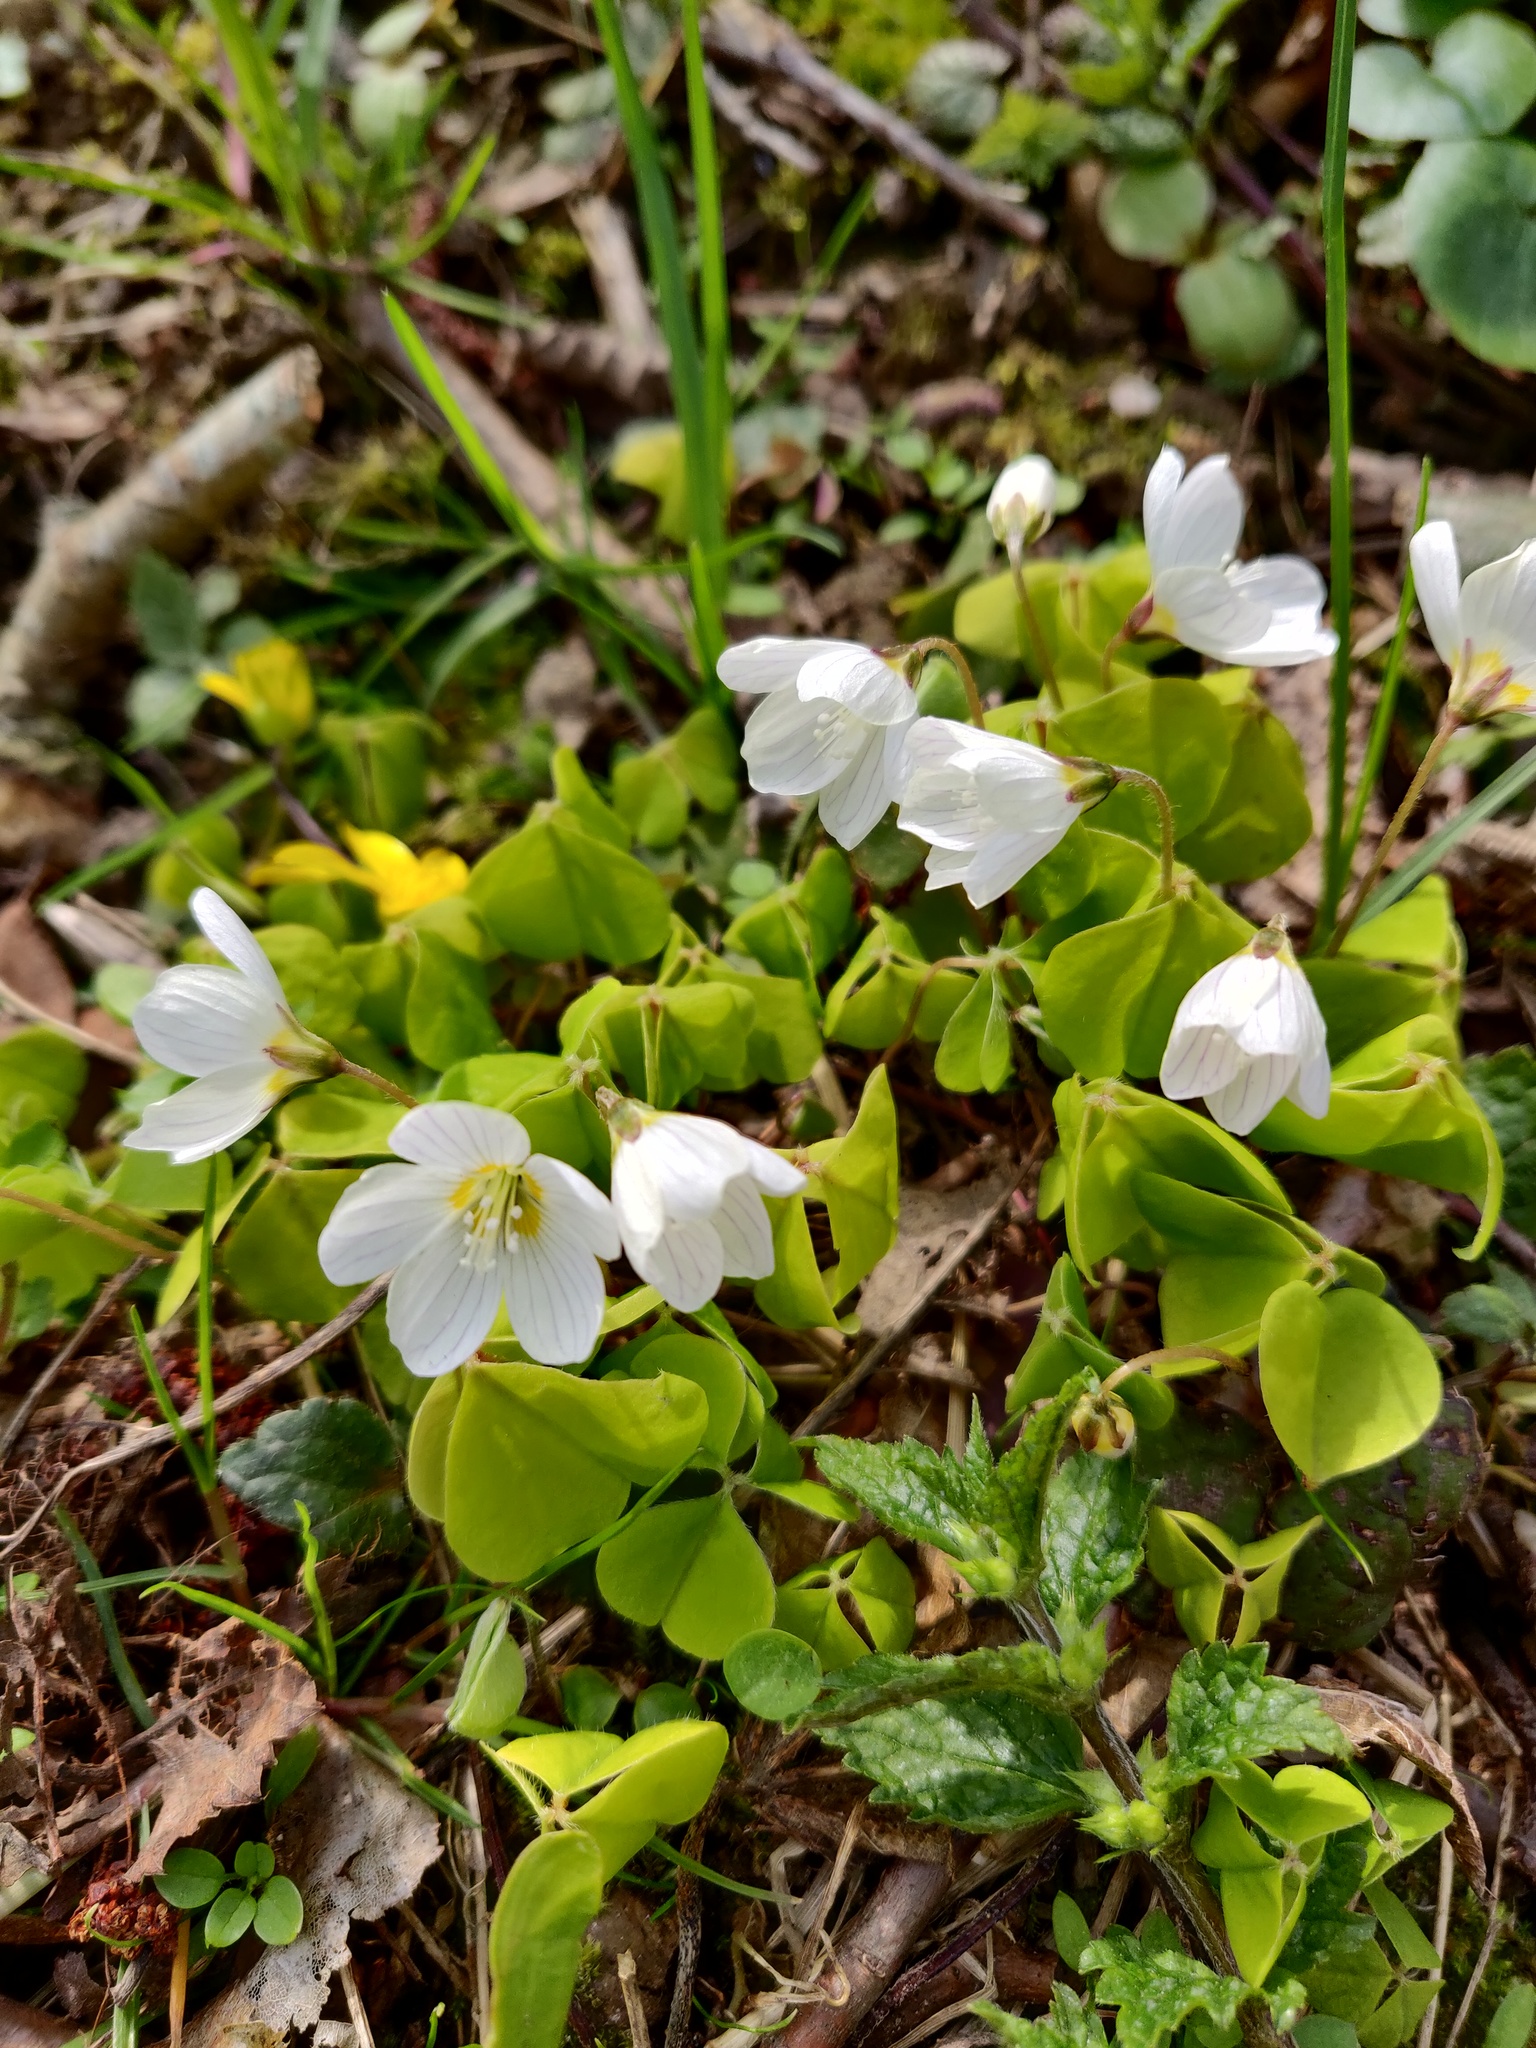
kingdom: Plantae
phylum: Tracheophyta
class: Magnoliopsida
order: Oxalidales
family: Oxalidaceae
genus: Oxalis
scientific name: Oxalis acetosella
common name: Wood-sorrel
